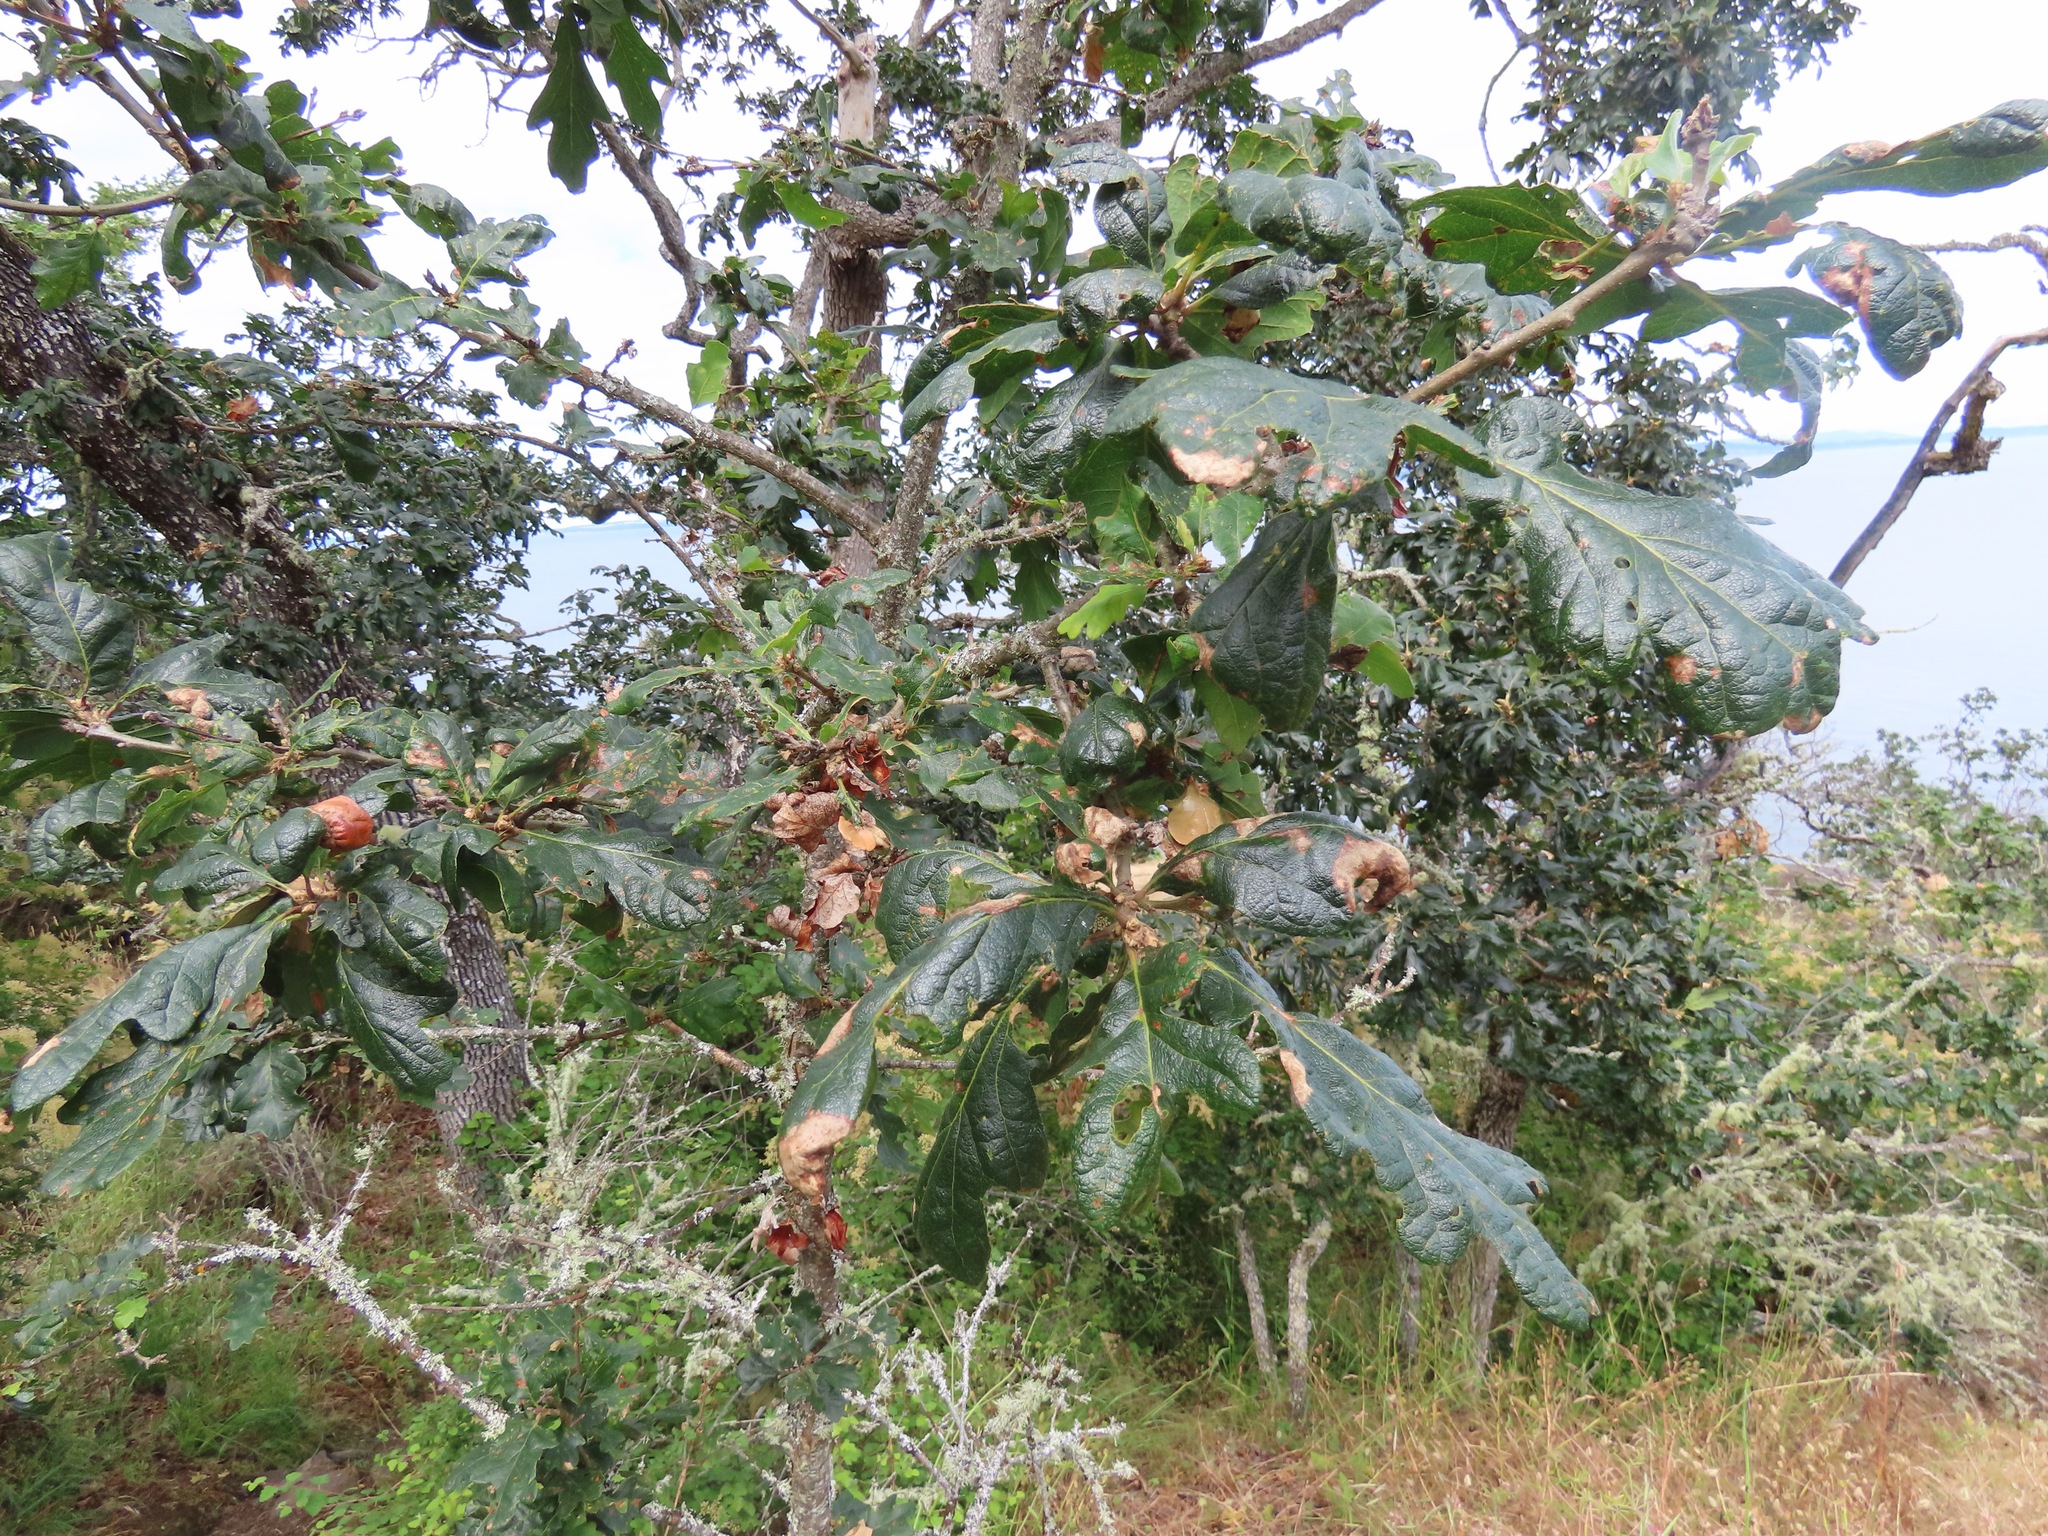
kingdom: Plantae
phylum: Tracheophyta
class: Magnoliopsida
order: Fagales
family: Fagaceae
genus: Quercus
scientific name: Quercus garryana
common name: Garry oak
